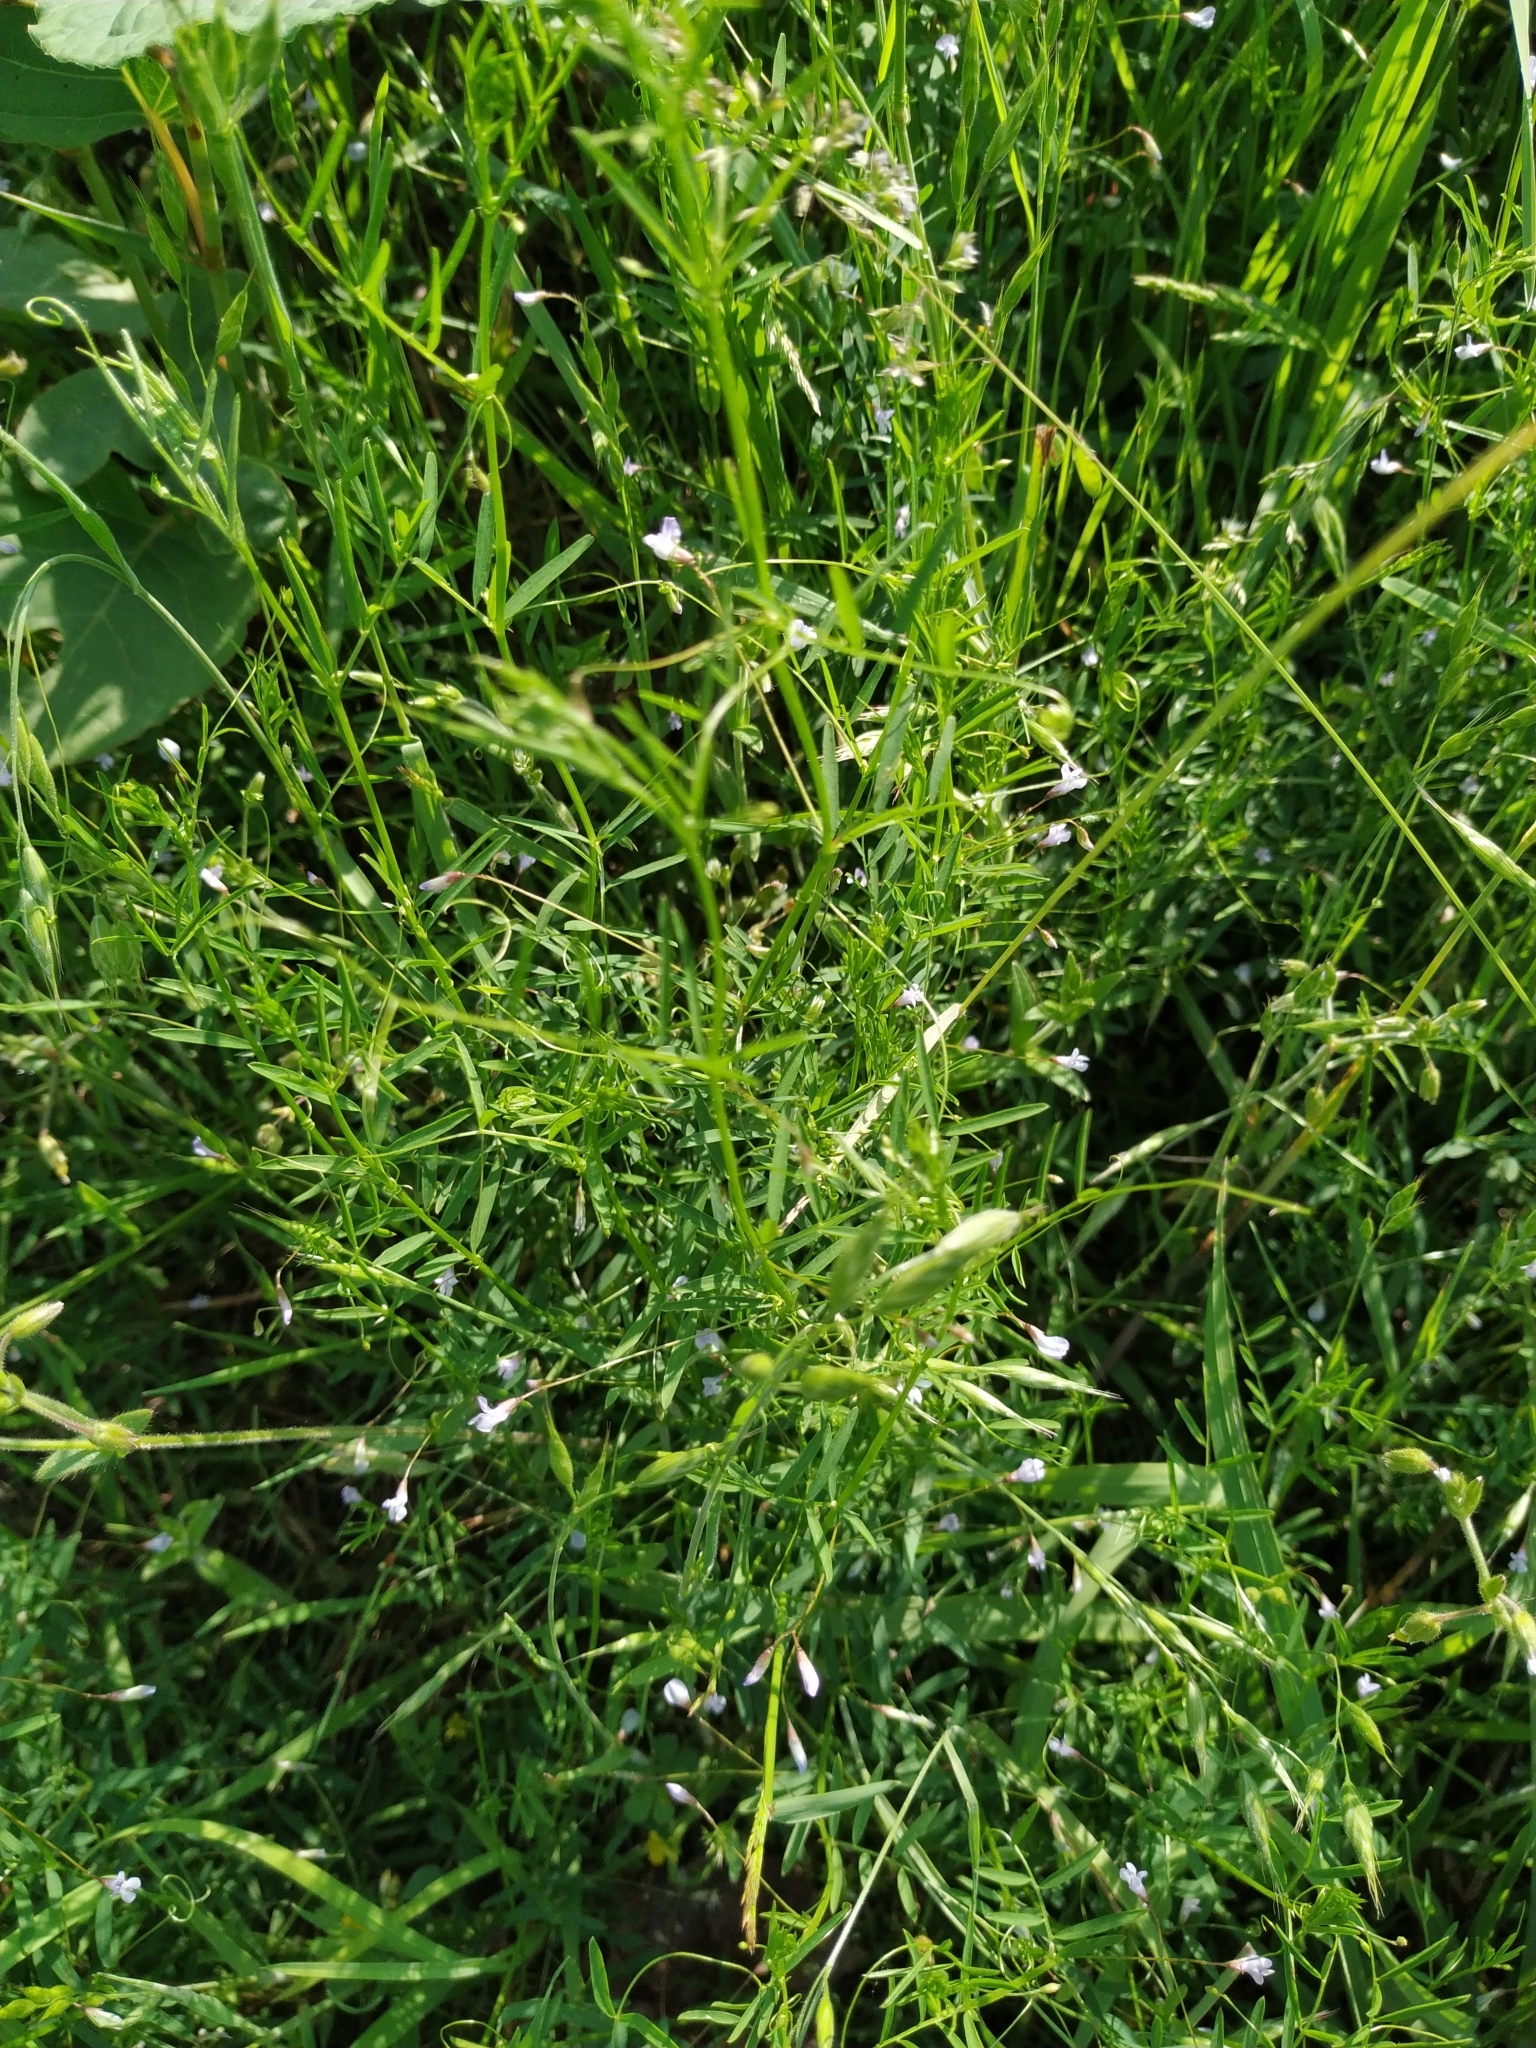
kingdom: Plantae
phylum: Tracheophyta
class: Magnoliopsida
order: Fabales
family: Fabaceae
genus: Vicia
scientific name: Vicia tetrasperma
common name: Smooth tare
